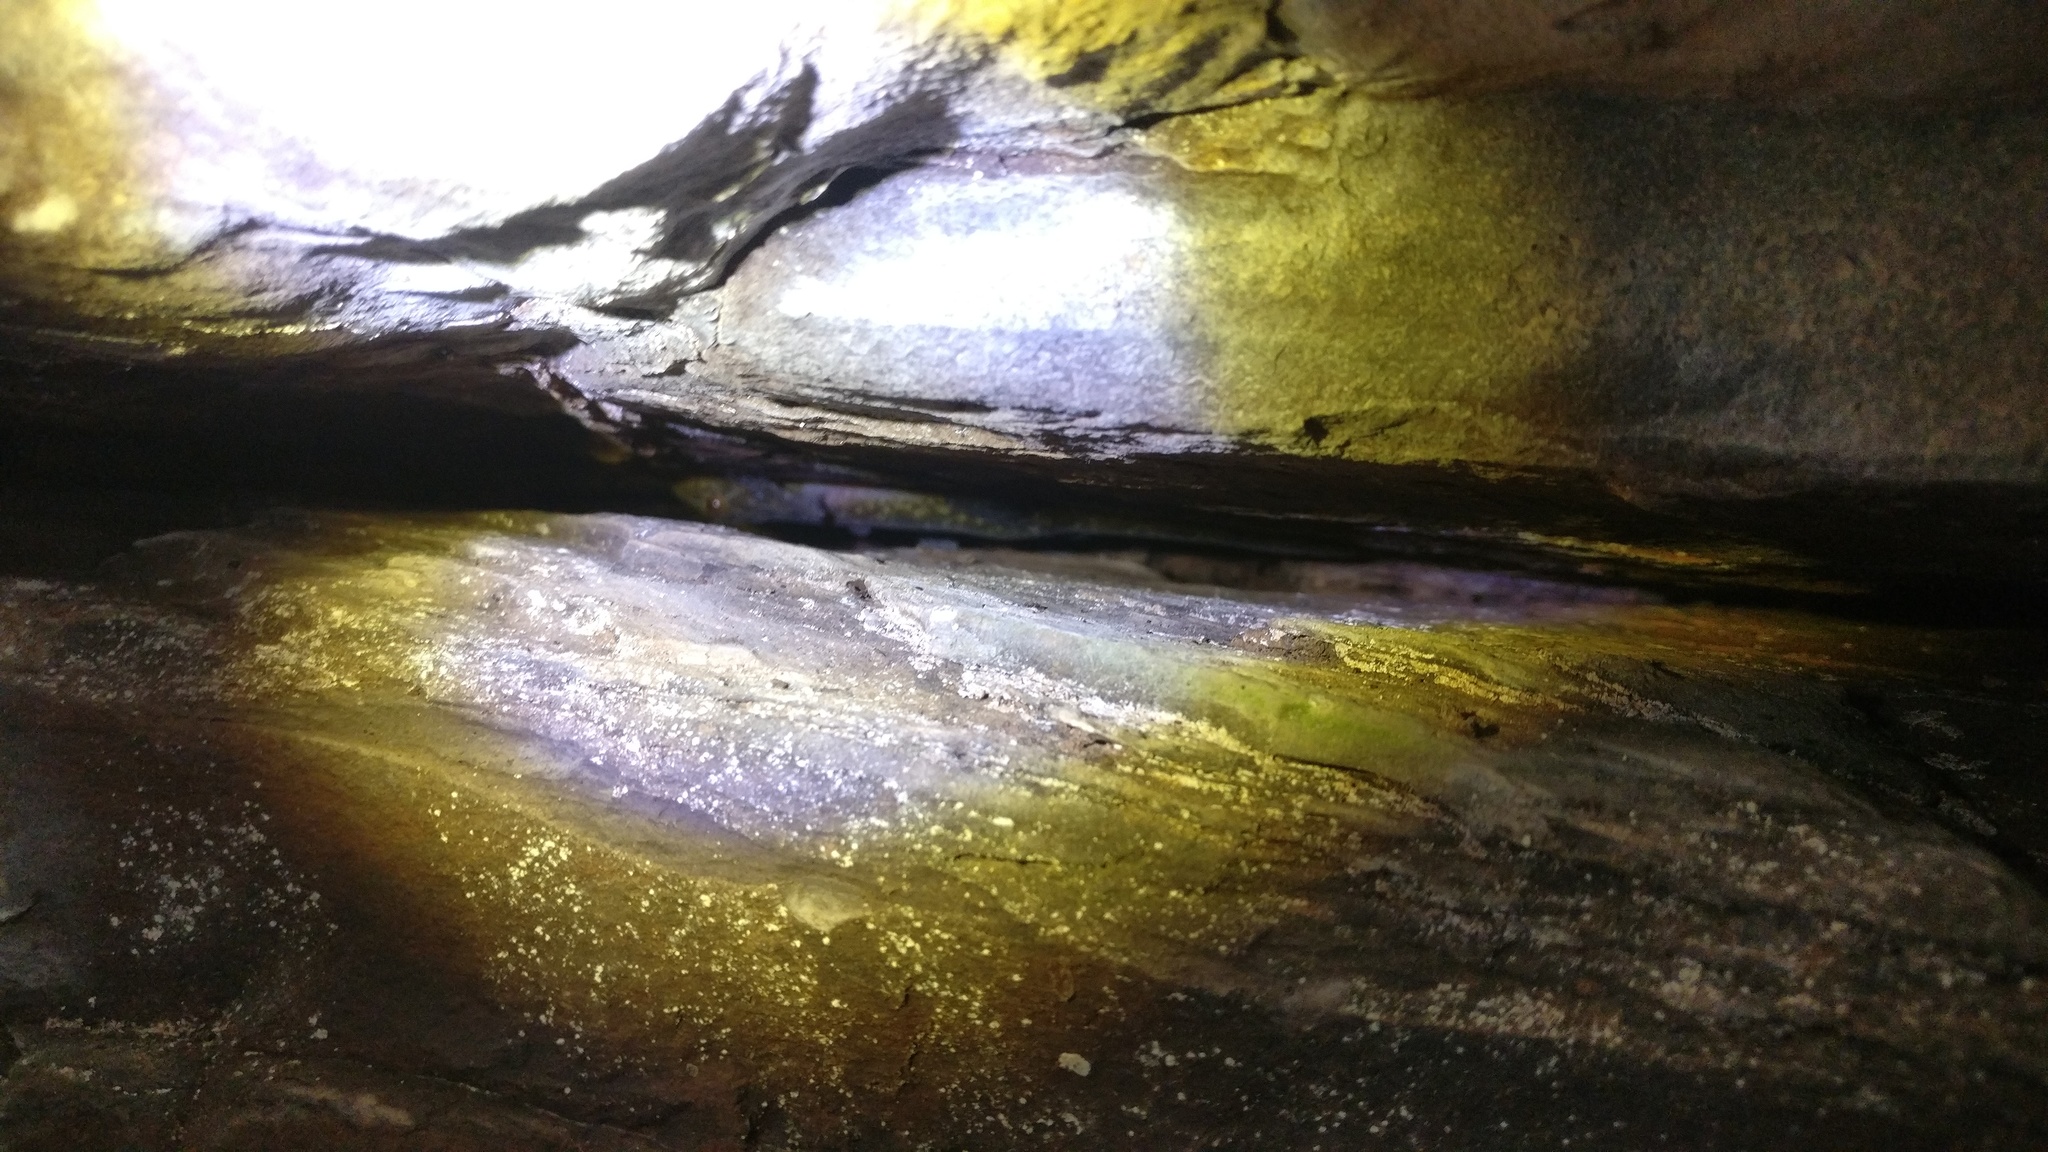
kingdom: Animalia
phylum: Chordata
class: Squamata
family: Gekkonidae
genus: Calodactylodes
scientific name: Calodactylodes aureus
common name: Indian golden gecko
